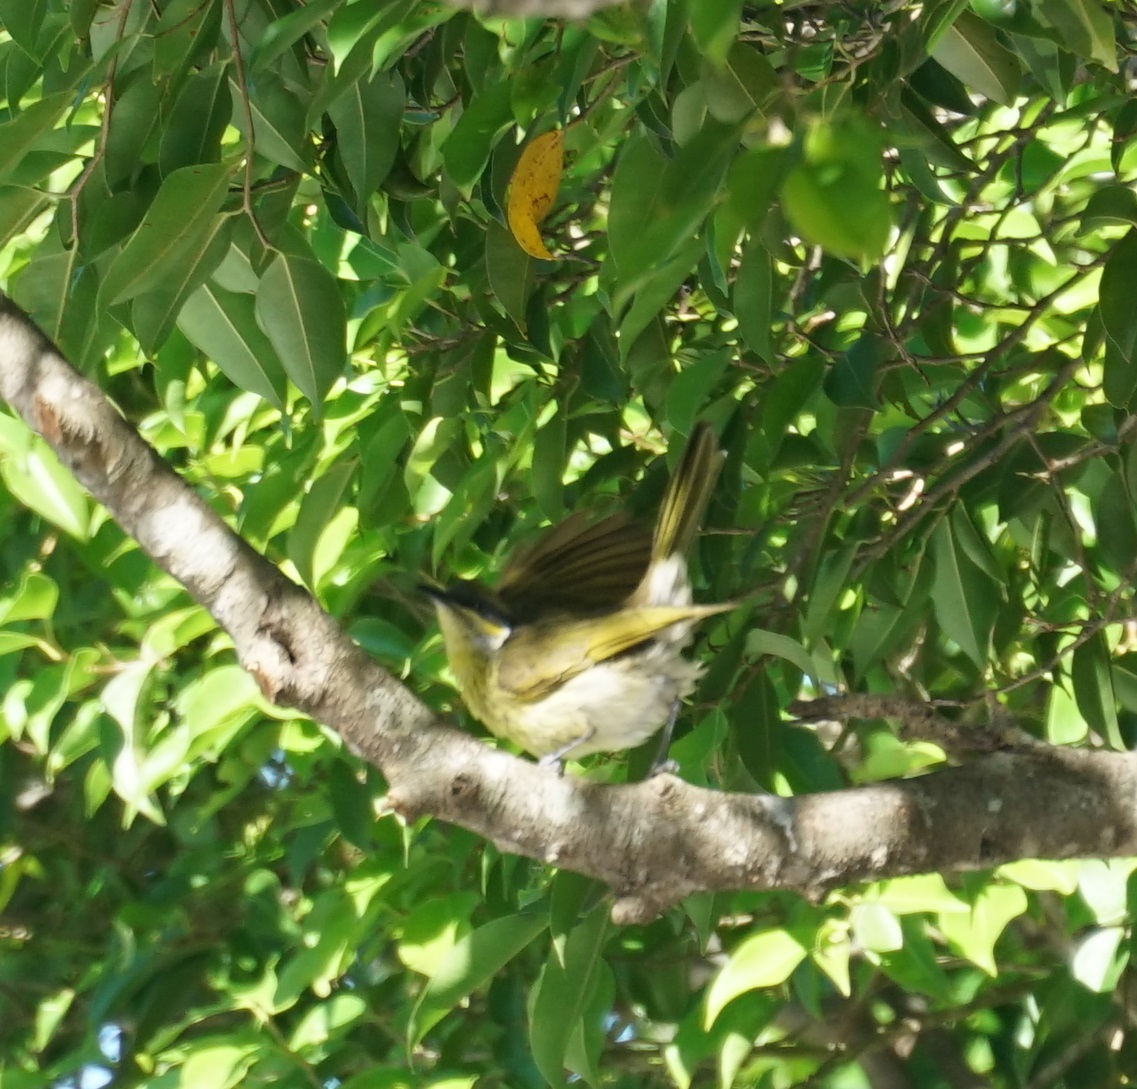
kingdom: Animalia
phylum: Chordata
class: Aves
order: Passeriformes
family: Meliphagidae
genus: Gavicalis
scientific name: Gavicalis versicolor
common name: Varied honeyeater
